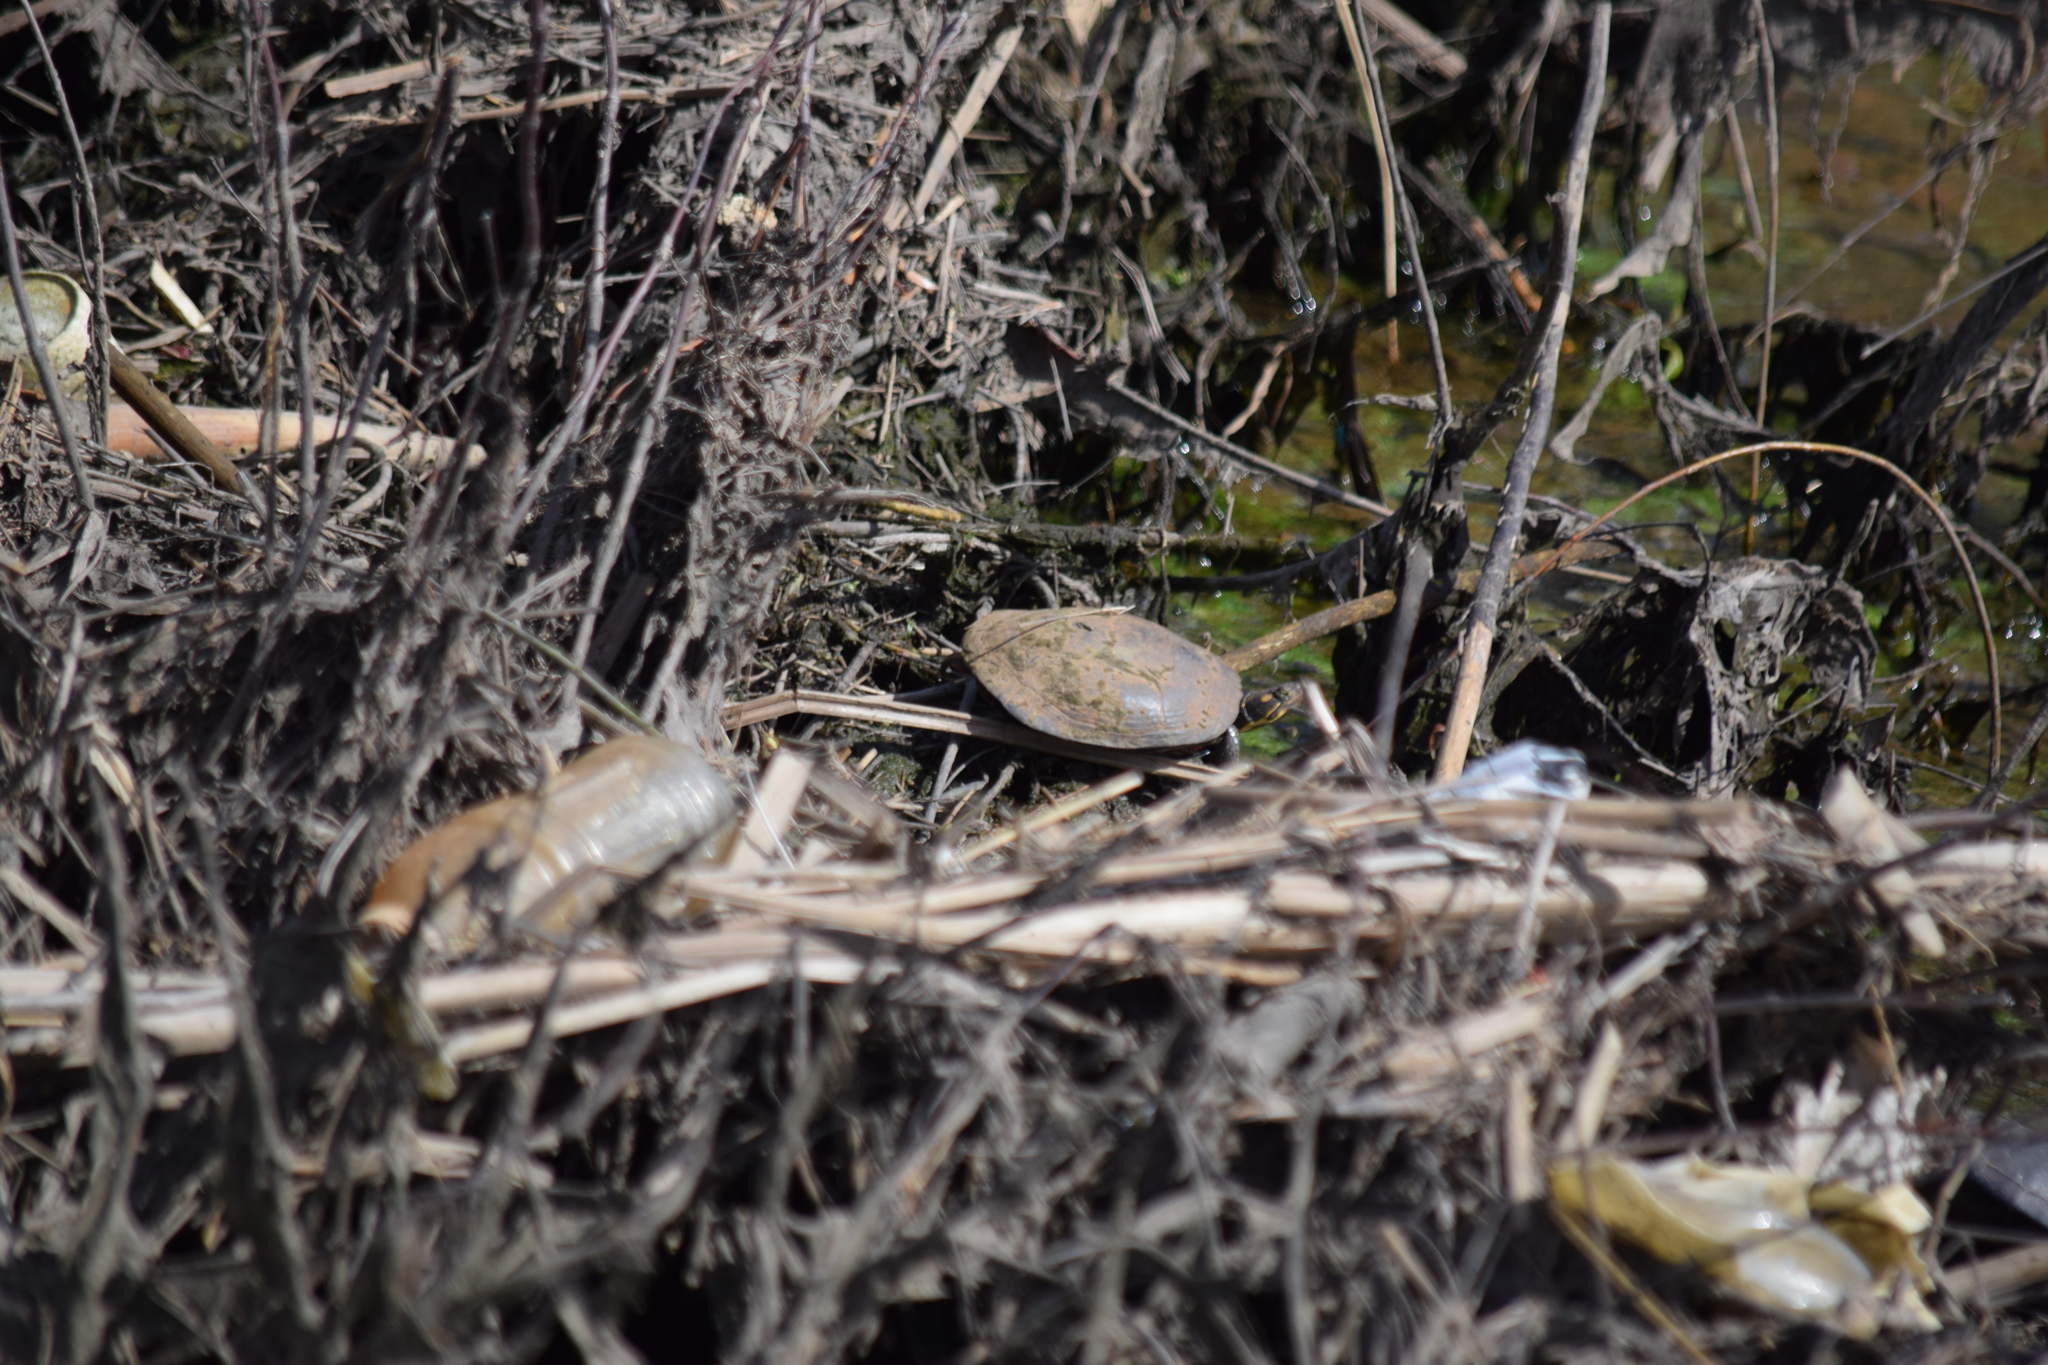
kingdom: Animalia
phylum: Chordata
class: Testudines
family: Emydidae
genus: Chrysemys
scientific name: Chrysemys picta
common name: Painted turtle
